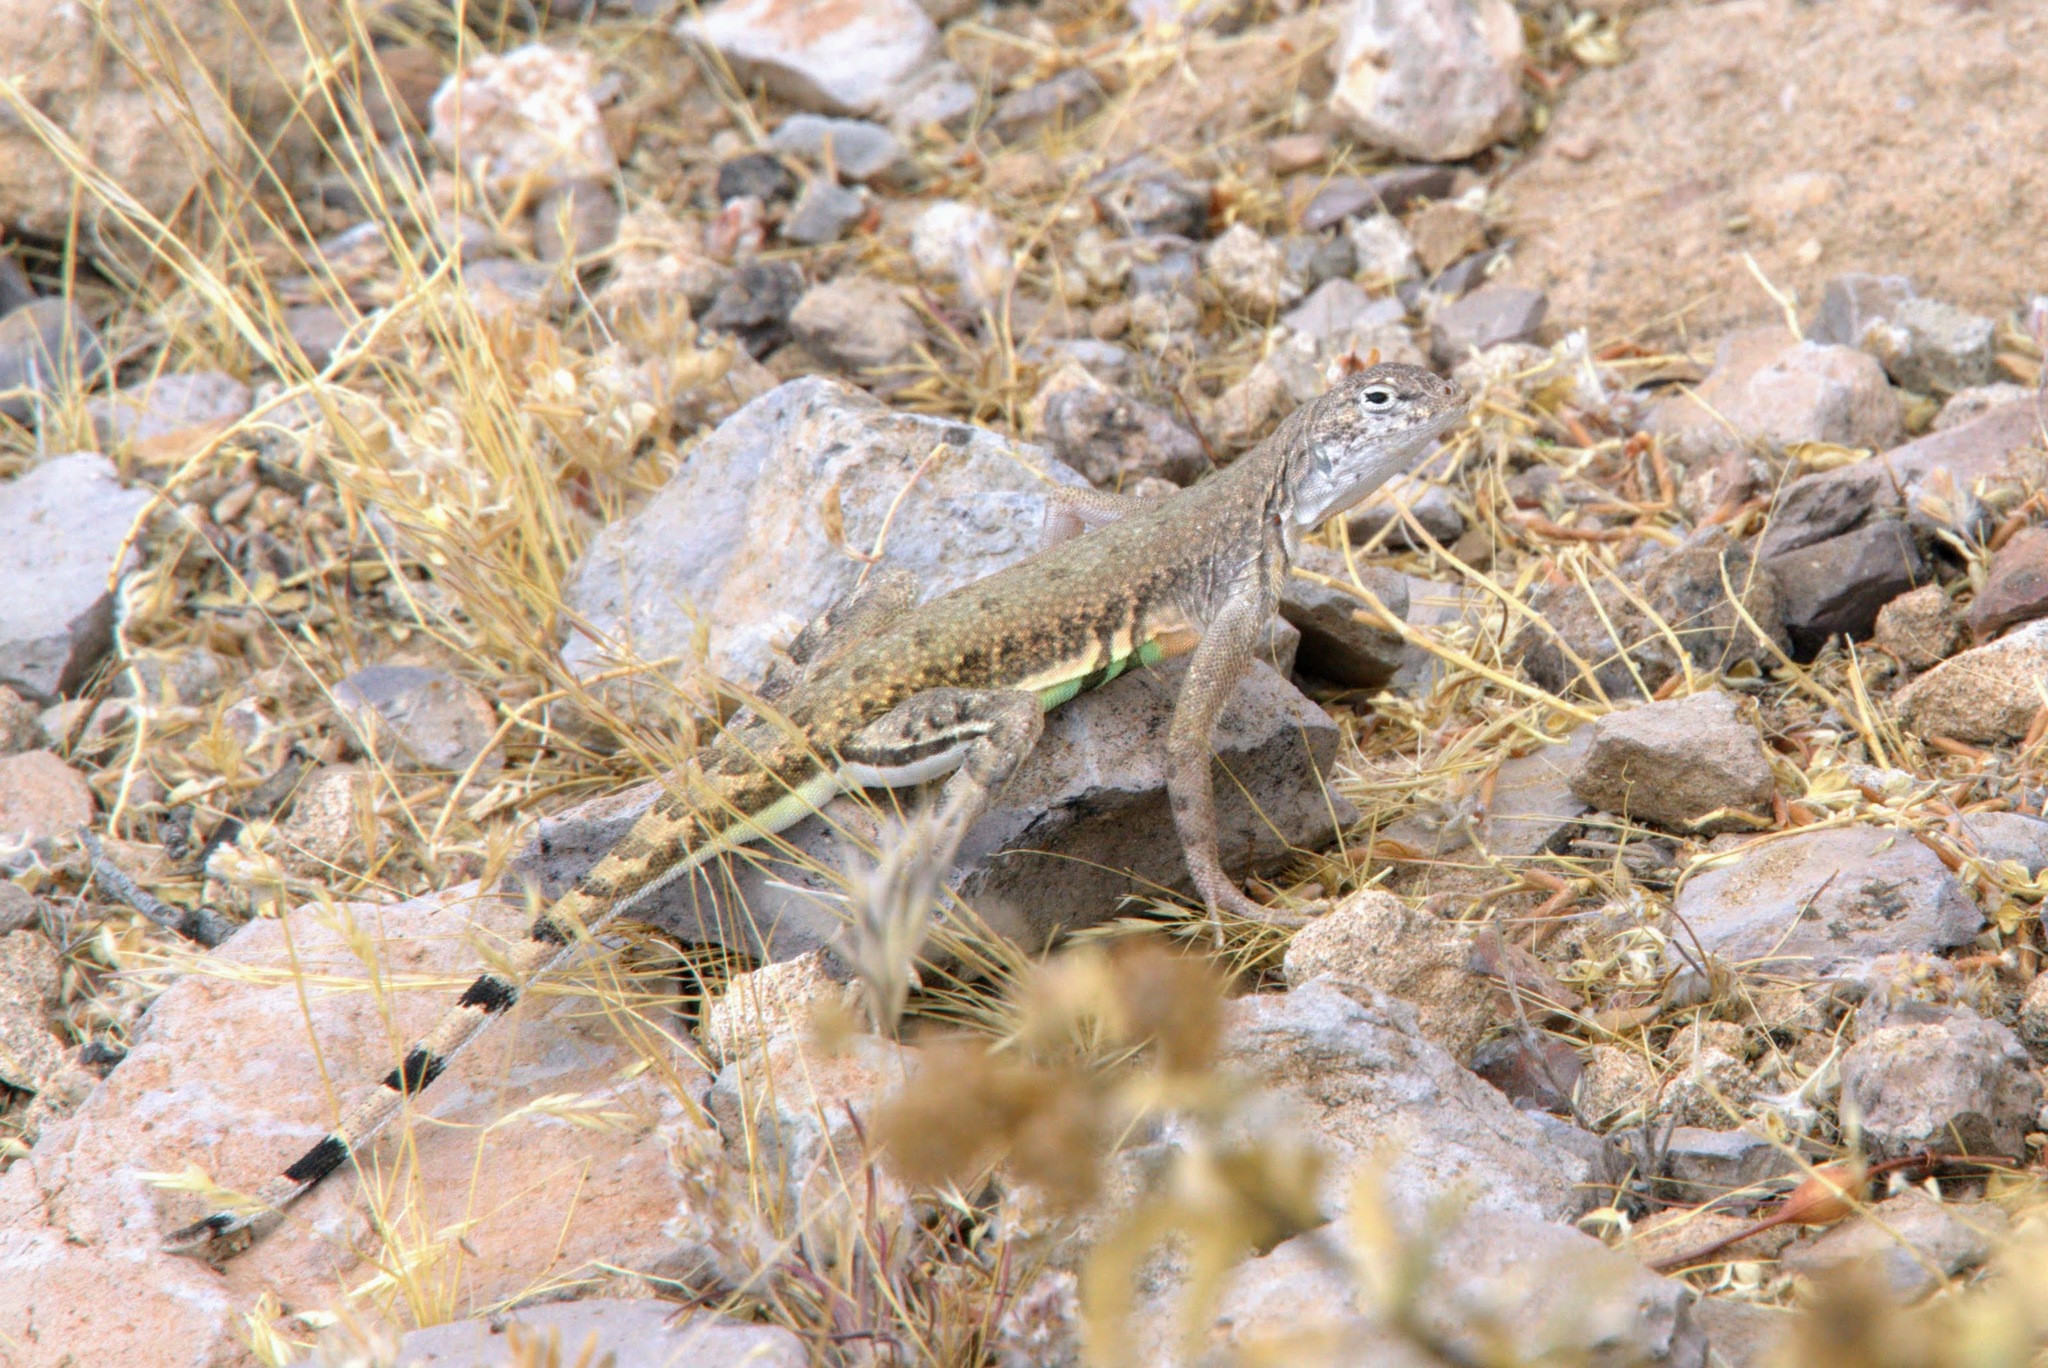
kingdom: Animalia
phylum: Chordata
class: Squamata
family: Phrynosomatidae
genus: Callisaurus
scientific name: Callisaurus draconoides
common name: Zebra-tailed lizard
